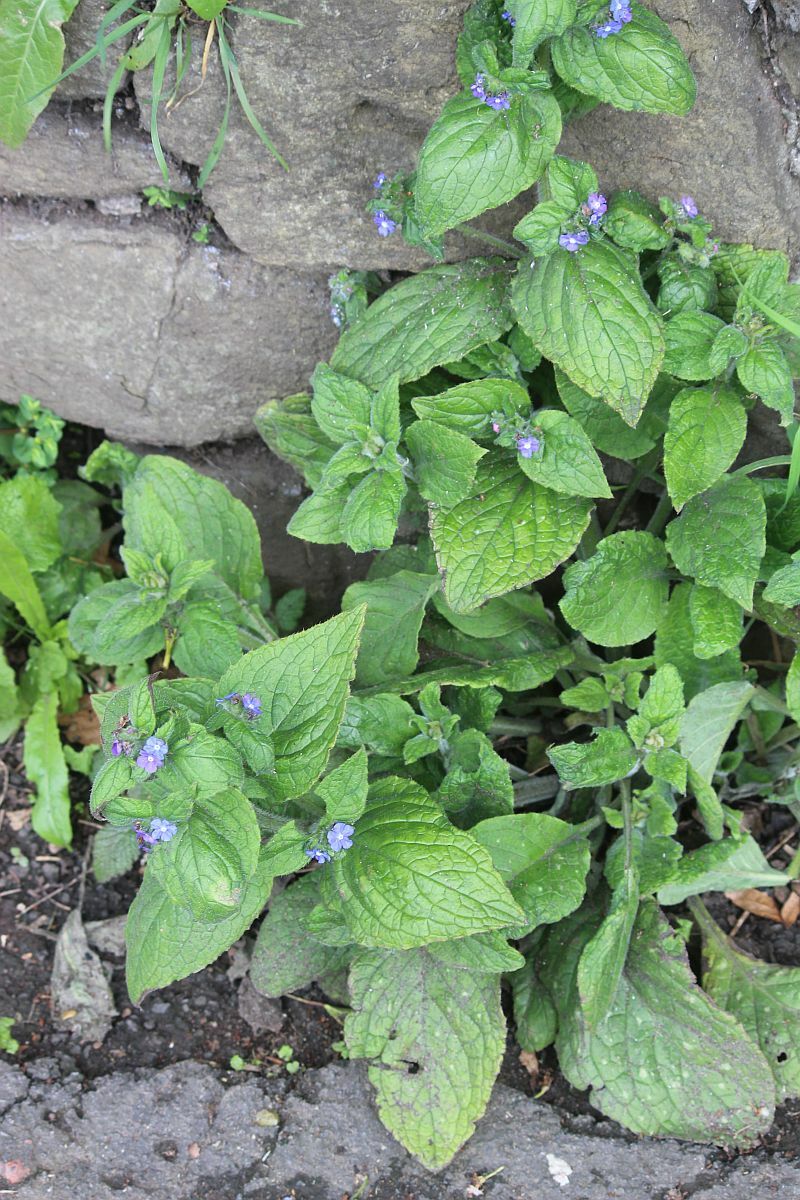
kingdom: Plantae
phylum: Tracheophyta
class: Magnoliopsida
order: Boraginales
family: Boraginaceae
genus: Pentaglottis
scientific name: Pentaglottis sempervirens
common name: Green alkanet
